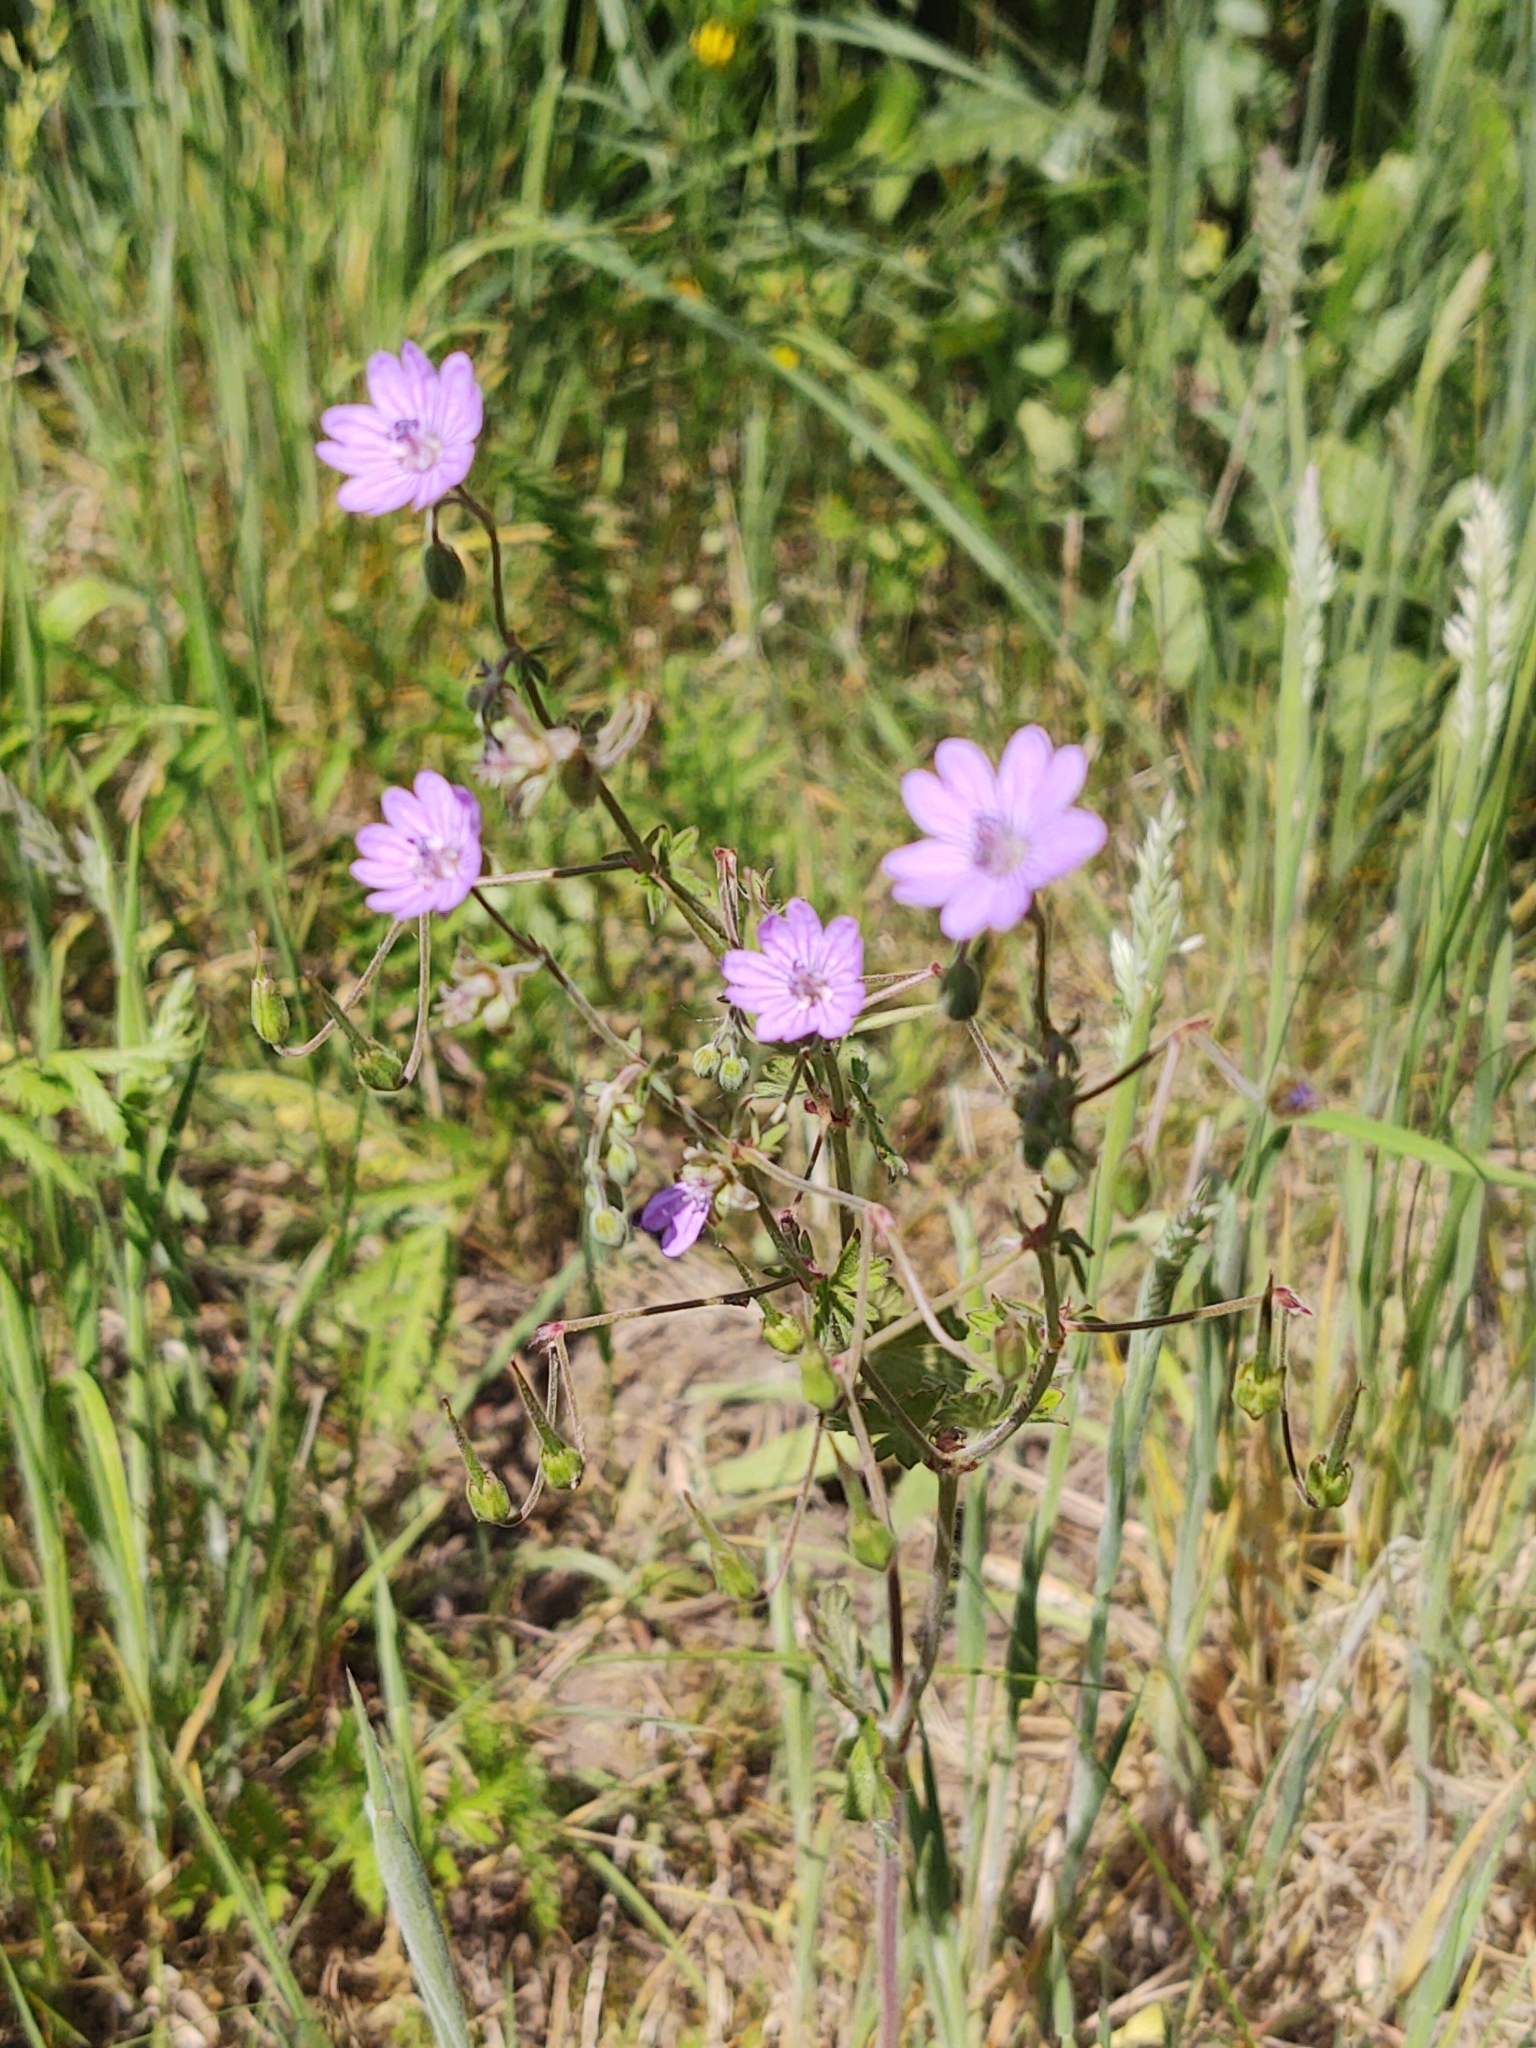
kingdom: Plantae
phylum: Tracheophyta
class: Magnoliopsida
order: Geraniales
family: Geraniaceae
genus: Geranium
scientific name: Geranium pyrenaicum
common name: Hedgerow crane's-bill
